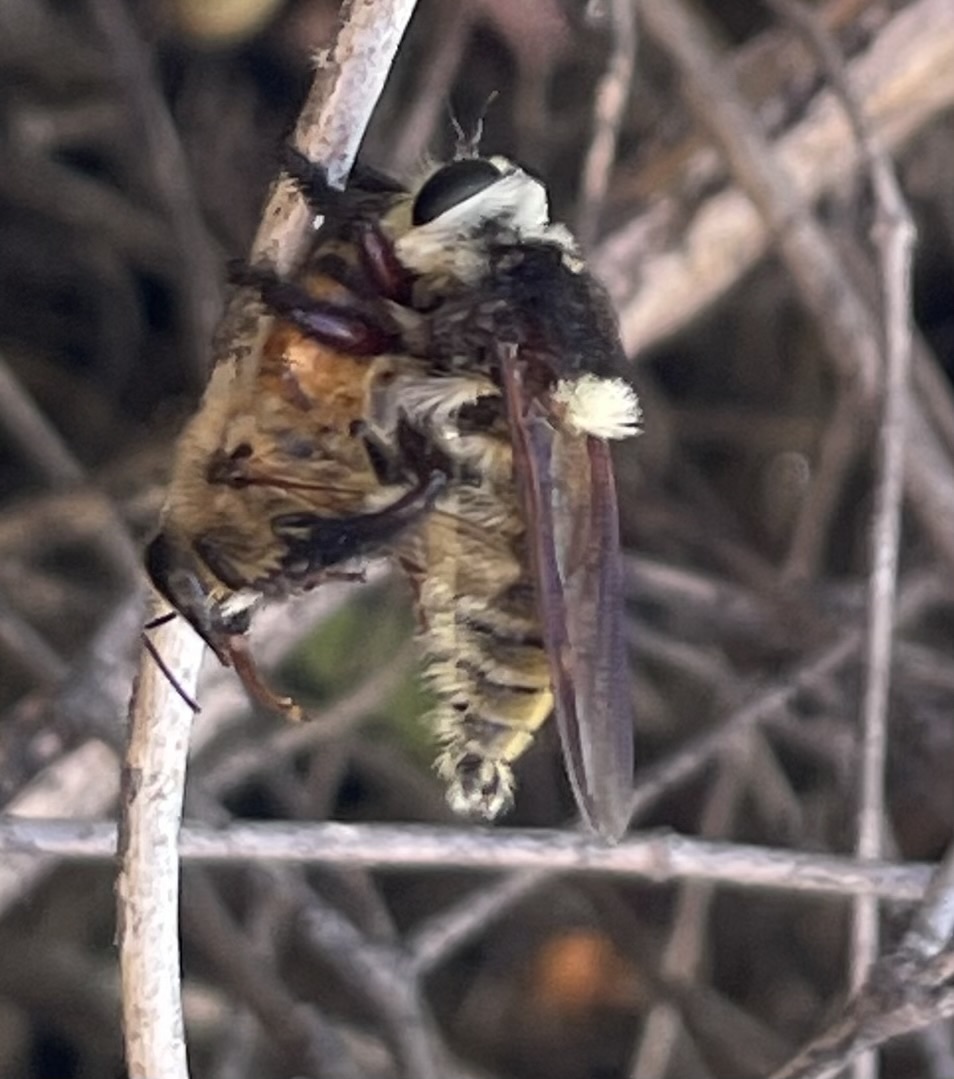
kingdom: Animalia
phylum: Arthropoda
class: Insecta
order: Diptera
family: Asilidae
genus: Mallophora
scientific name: Mallophora fautrix
